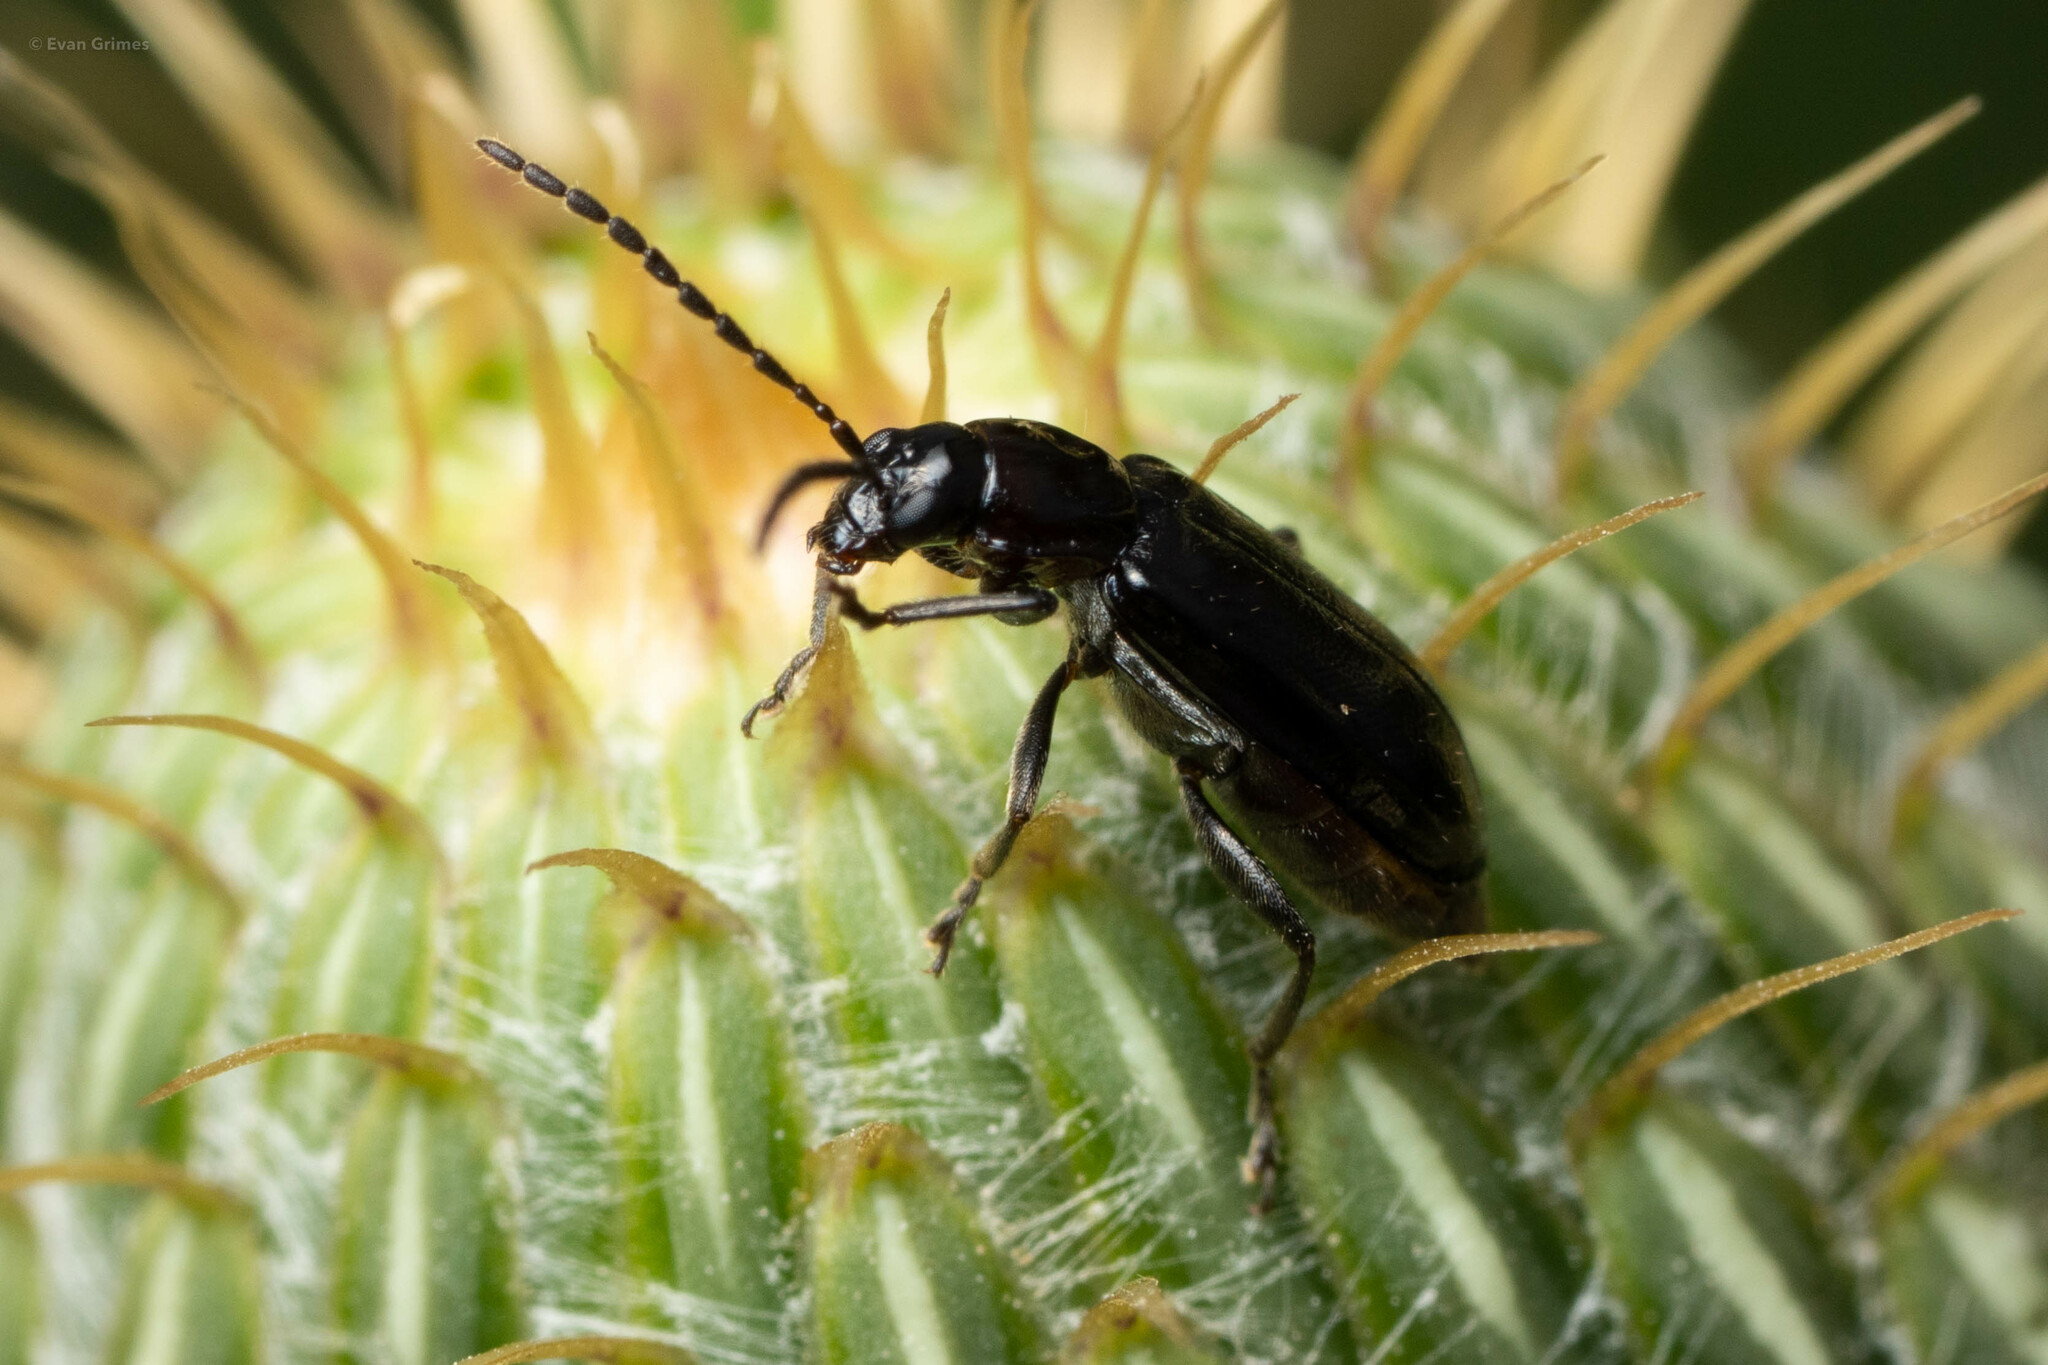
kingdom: Animalia
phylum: Arthropoda
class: Insecta
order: Coleoptera
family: Chrysomelidae
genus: Diabrotica
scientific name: Diabrotica cristata
